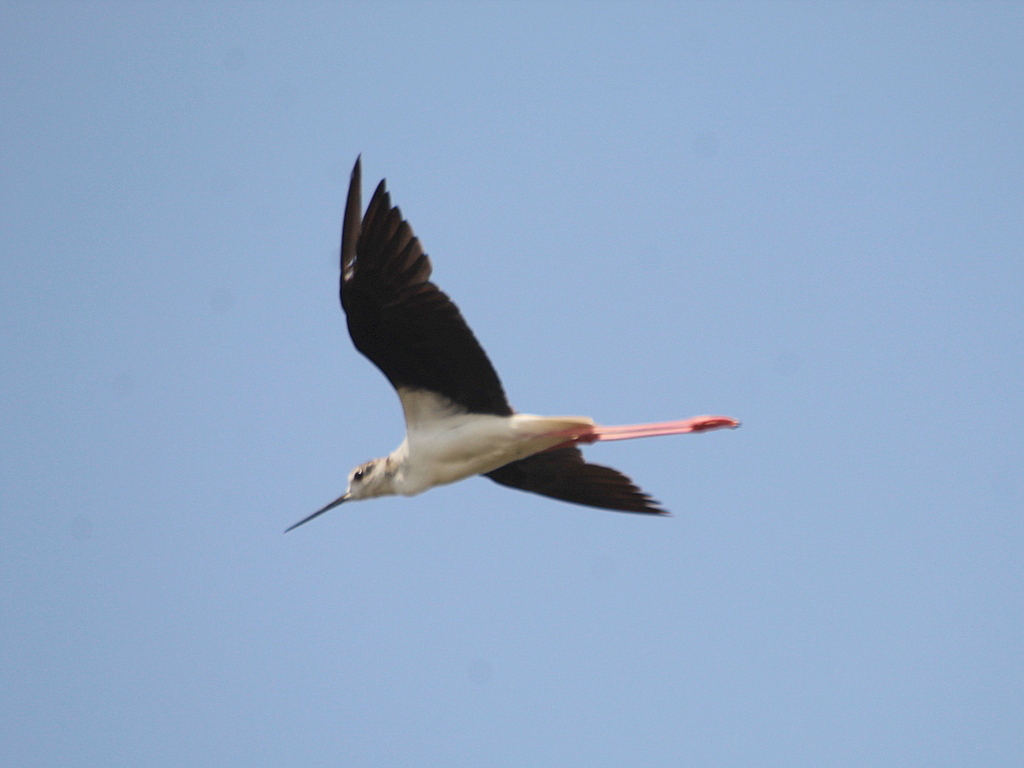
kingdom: Animalia
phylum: Chordata
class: Aves
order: Charadriiformes
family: Recurvirostridae
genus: Himantopus
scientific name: Himantopus himantopus
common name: Black-winged stilt
